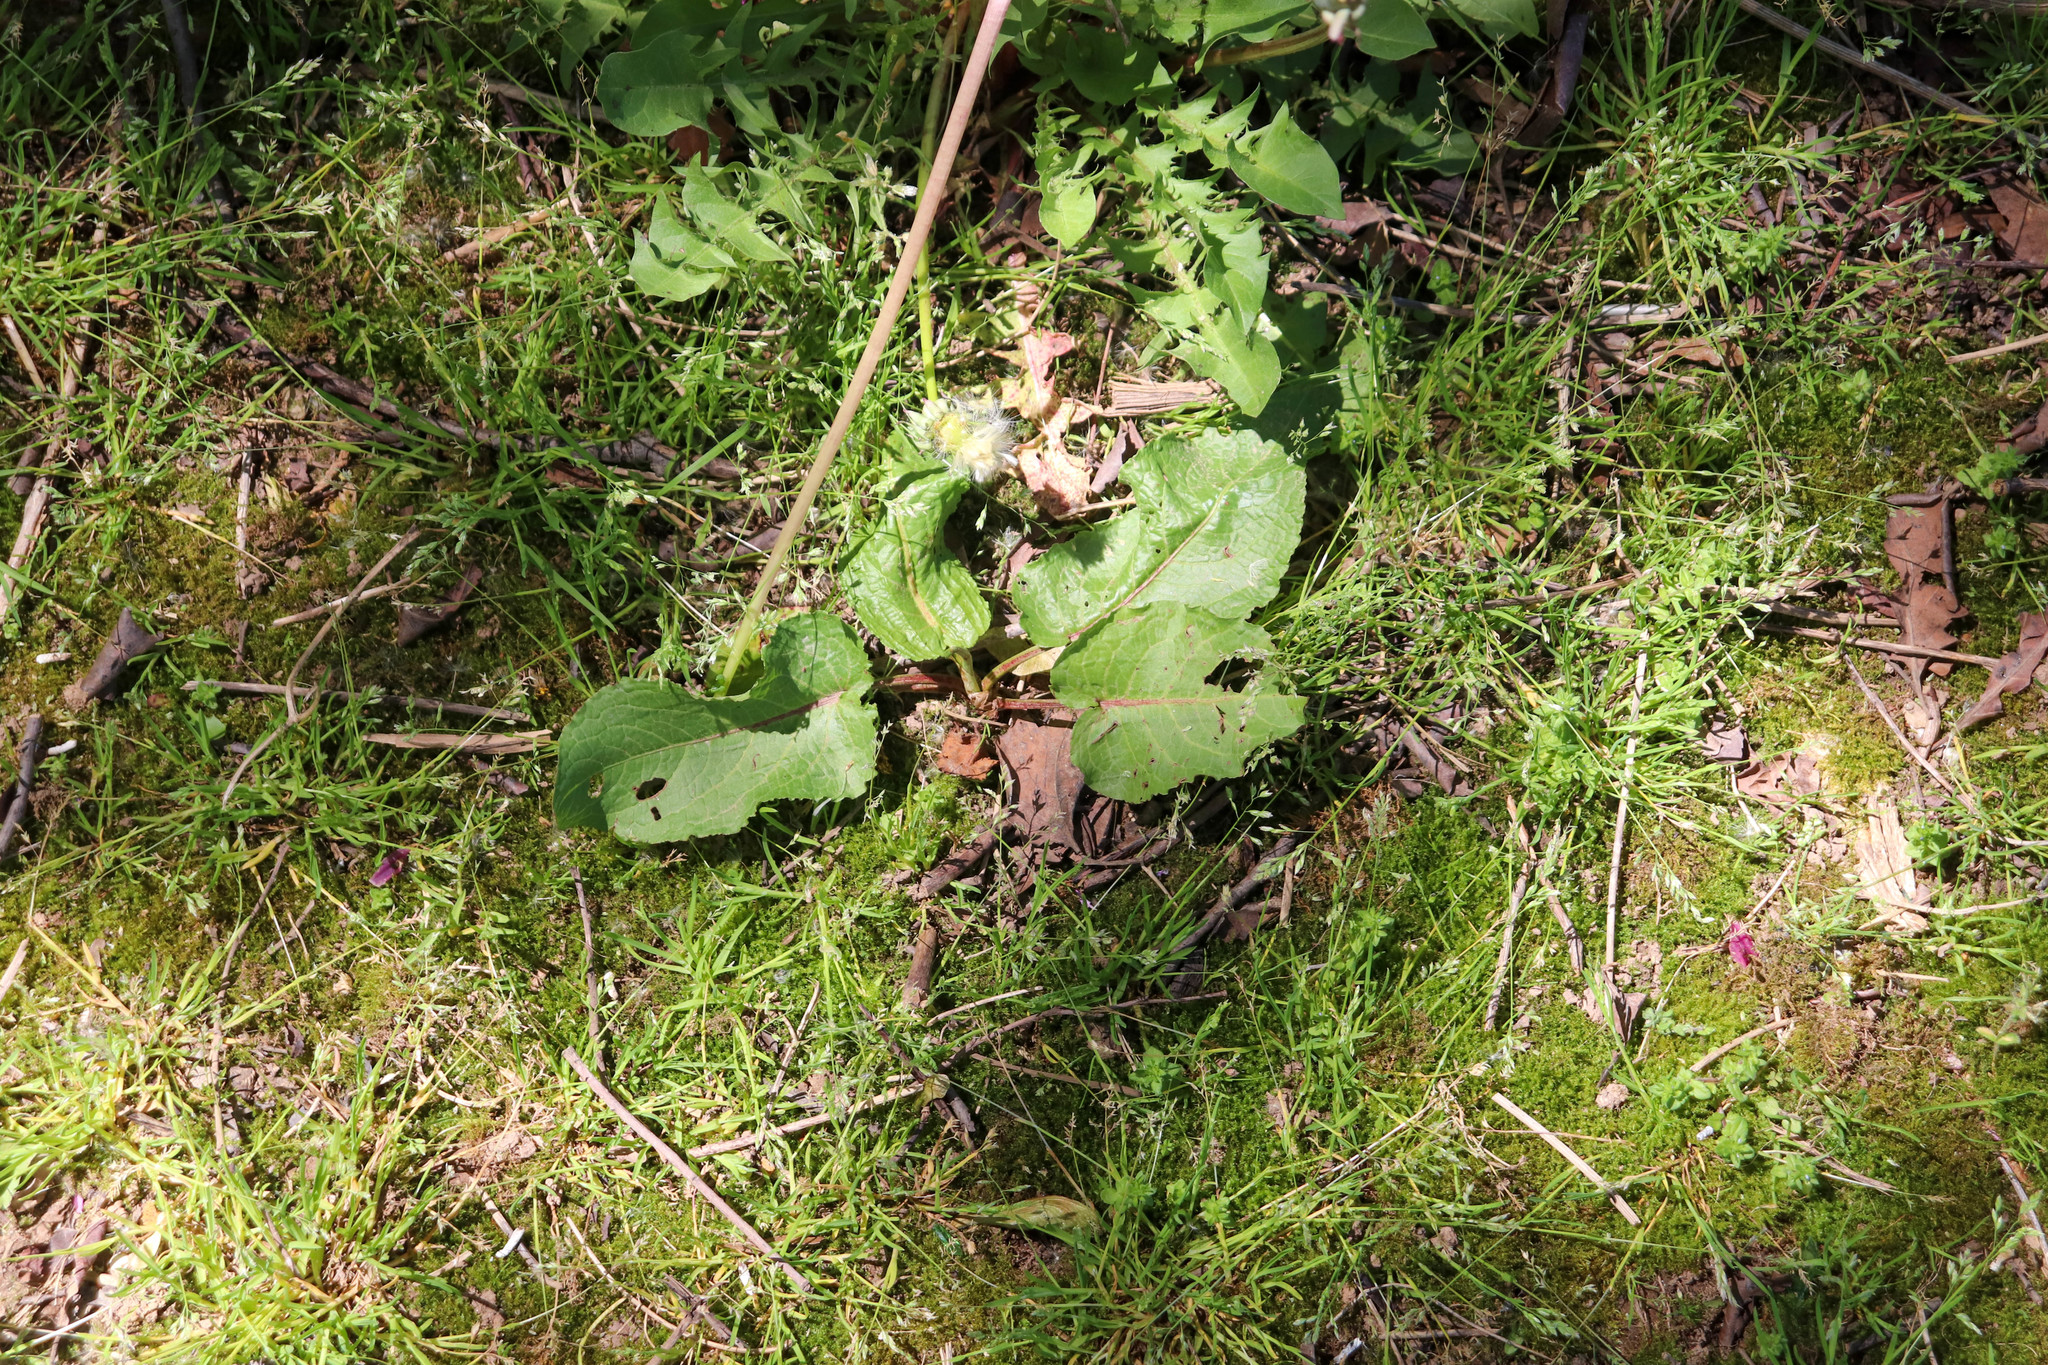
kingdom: Plantae
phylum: Tracheophyta
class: Magnoliopsida
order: Caryophyllales
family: Polygonaceae
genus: Rumex
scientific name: Rumex obtusifolius
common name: Bitter dock
